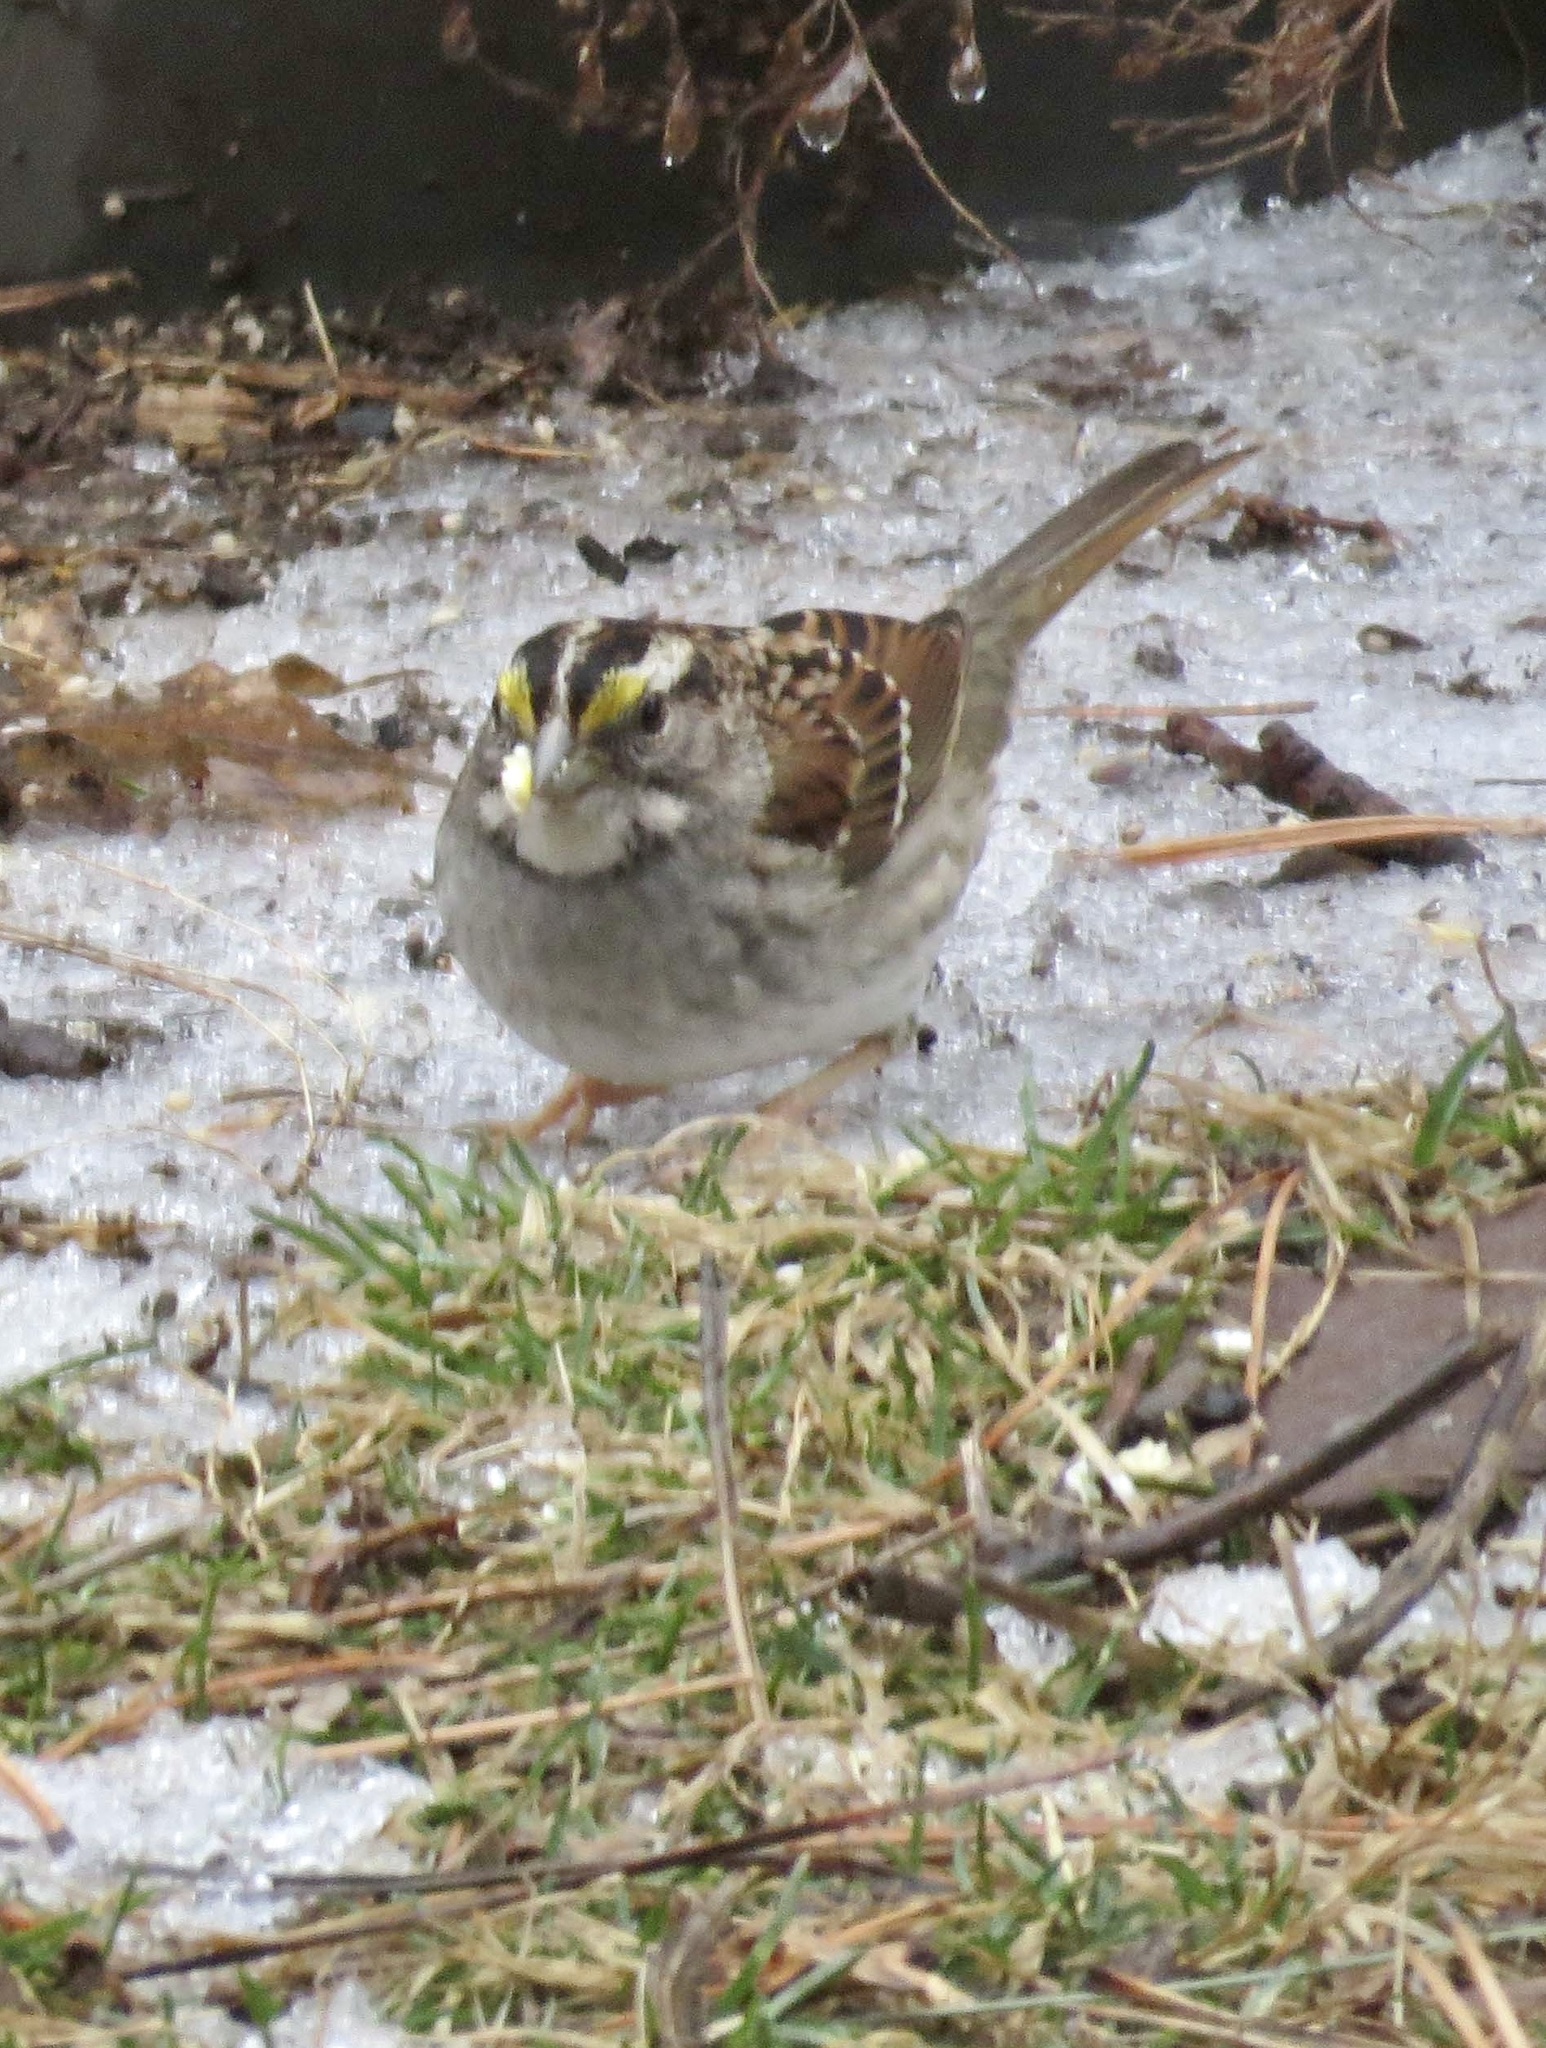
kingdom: Animalia
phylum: Chordata
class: Aves
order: Passeriformes
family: Passerellidae
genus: Zonotrichia
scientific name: Zonotrichia albicollis
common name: White-throated sparrow
